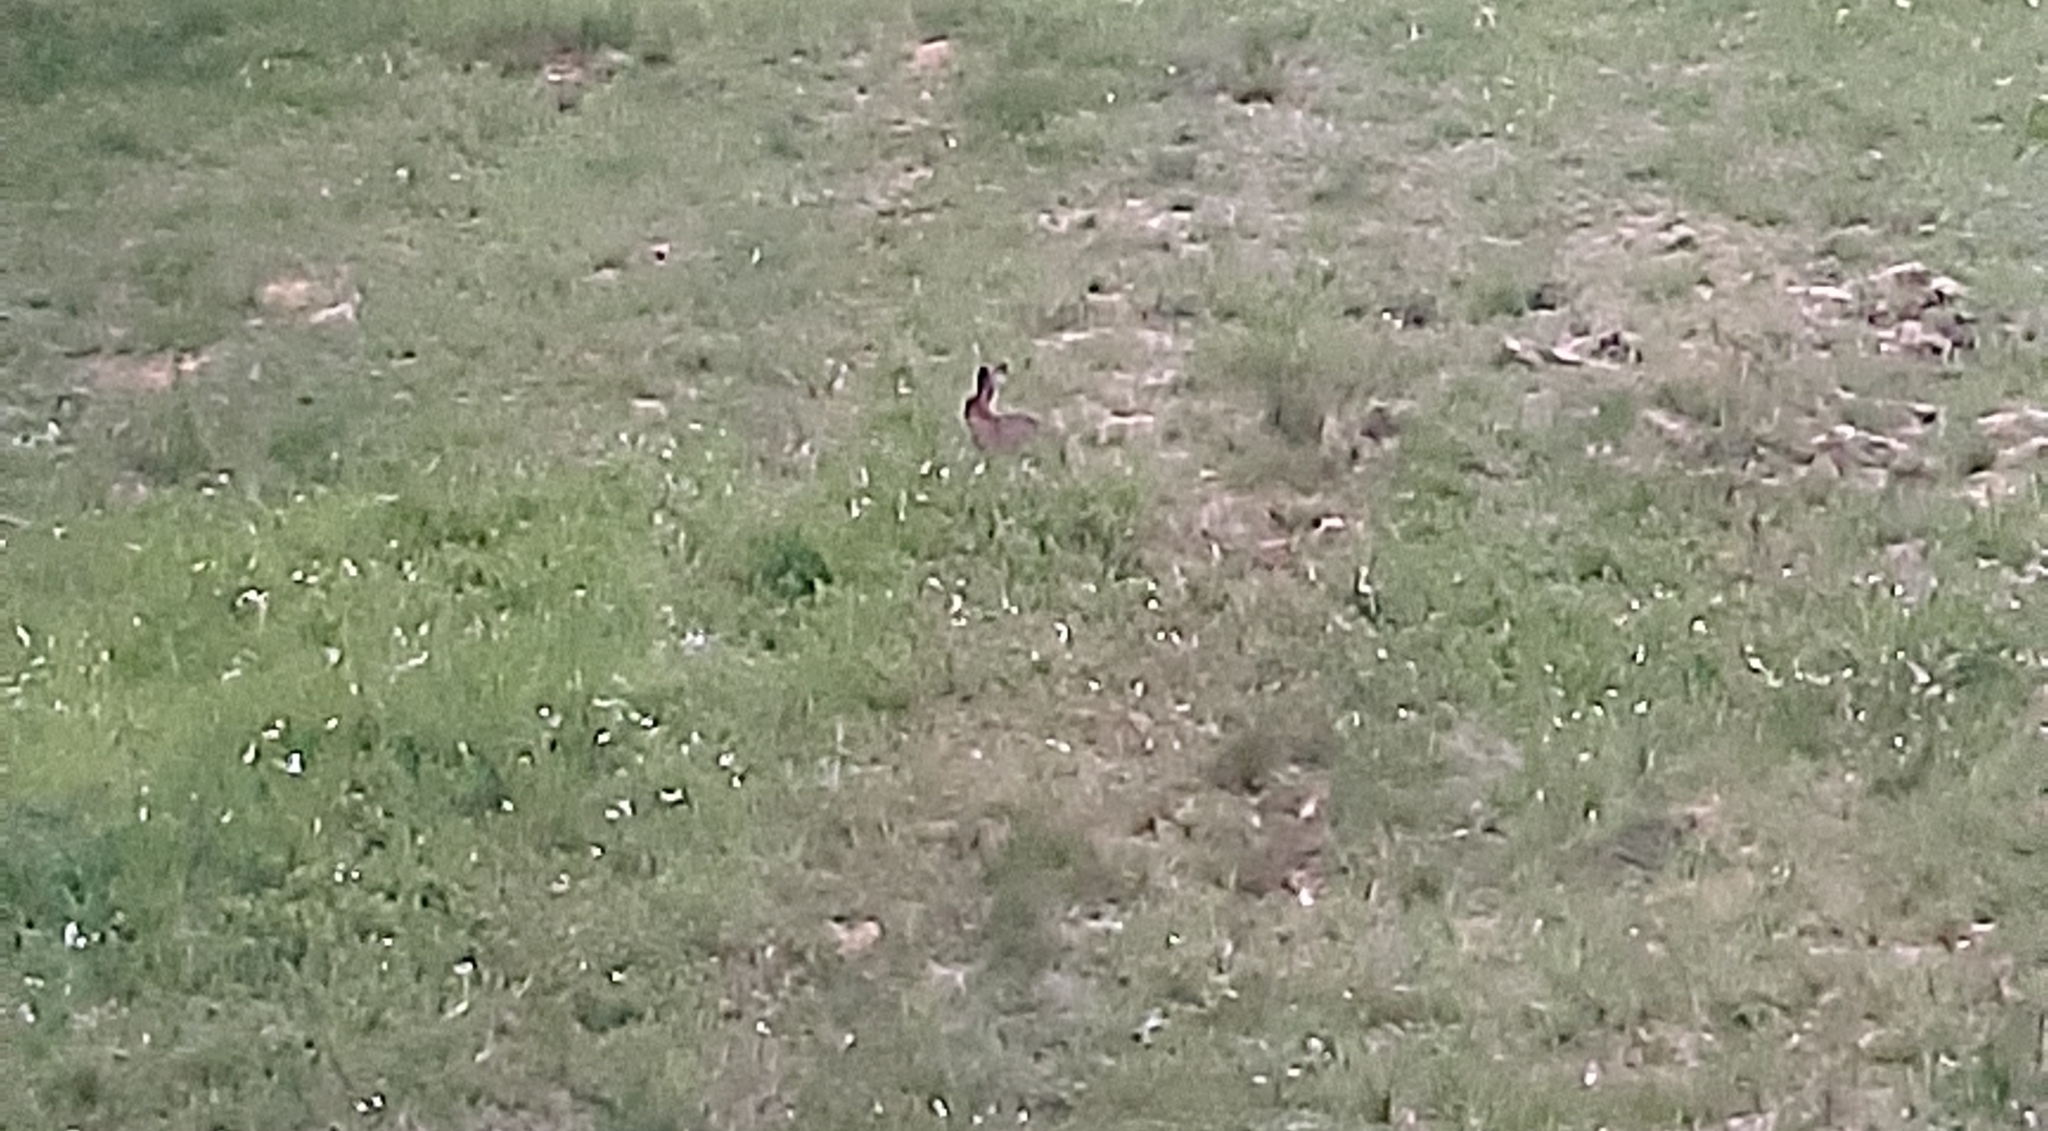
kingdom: Animalia
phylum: Chordata
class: Mammalia
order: Lagomorpha
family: Leporidae
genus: Lepus
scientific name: Lepus europaeus
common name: European hare
